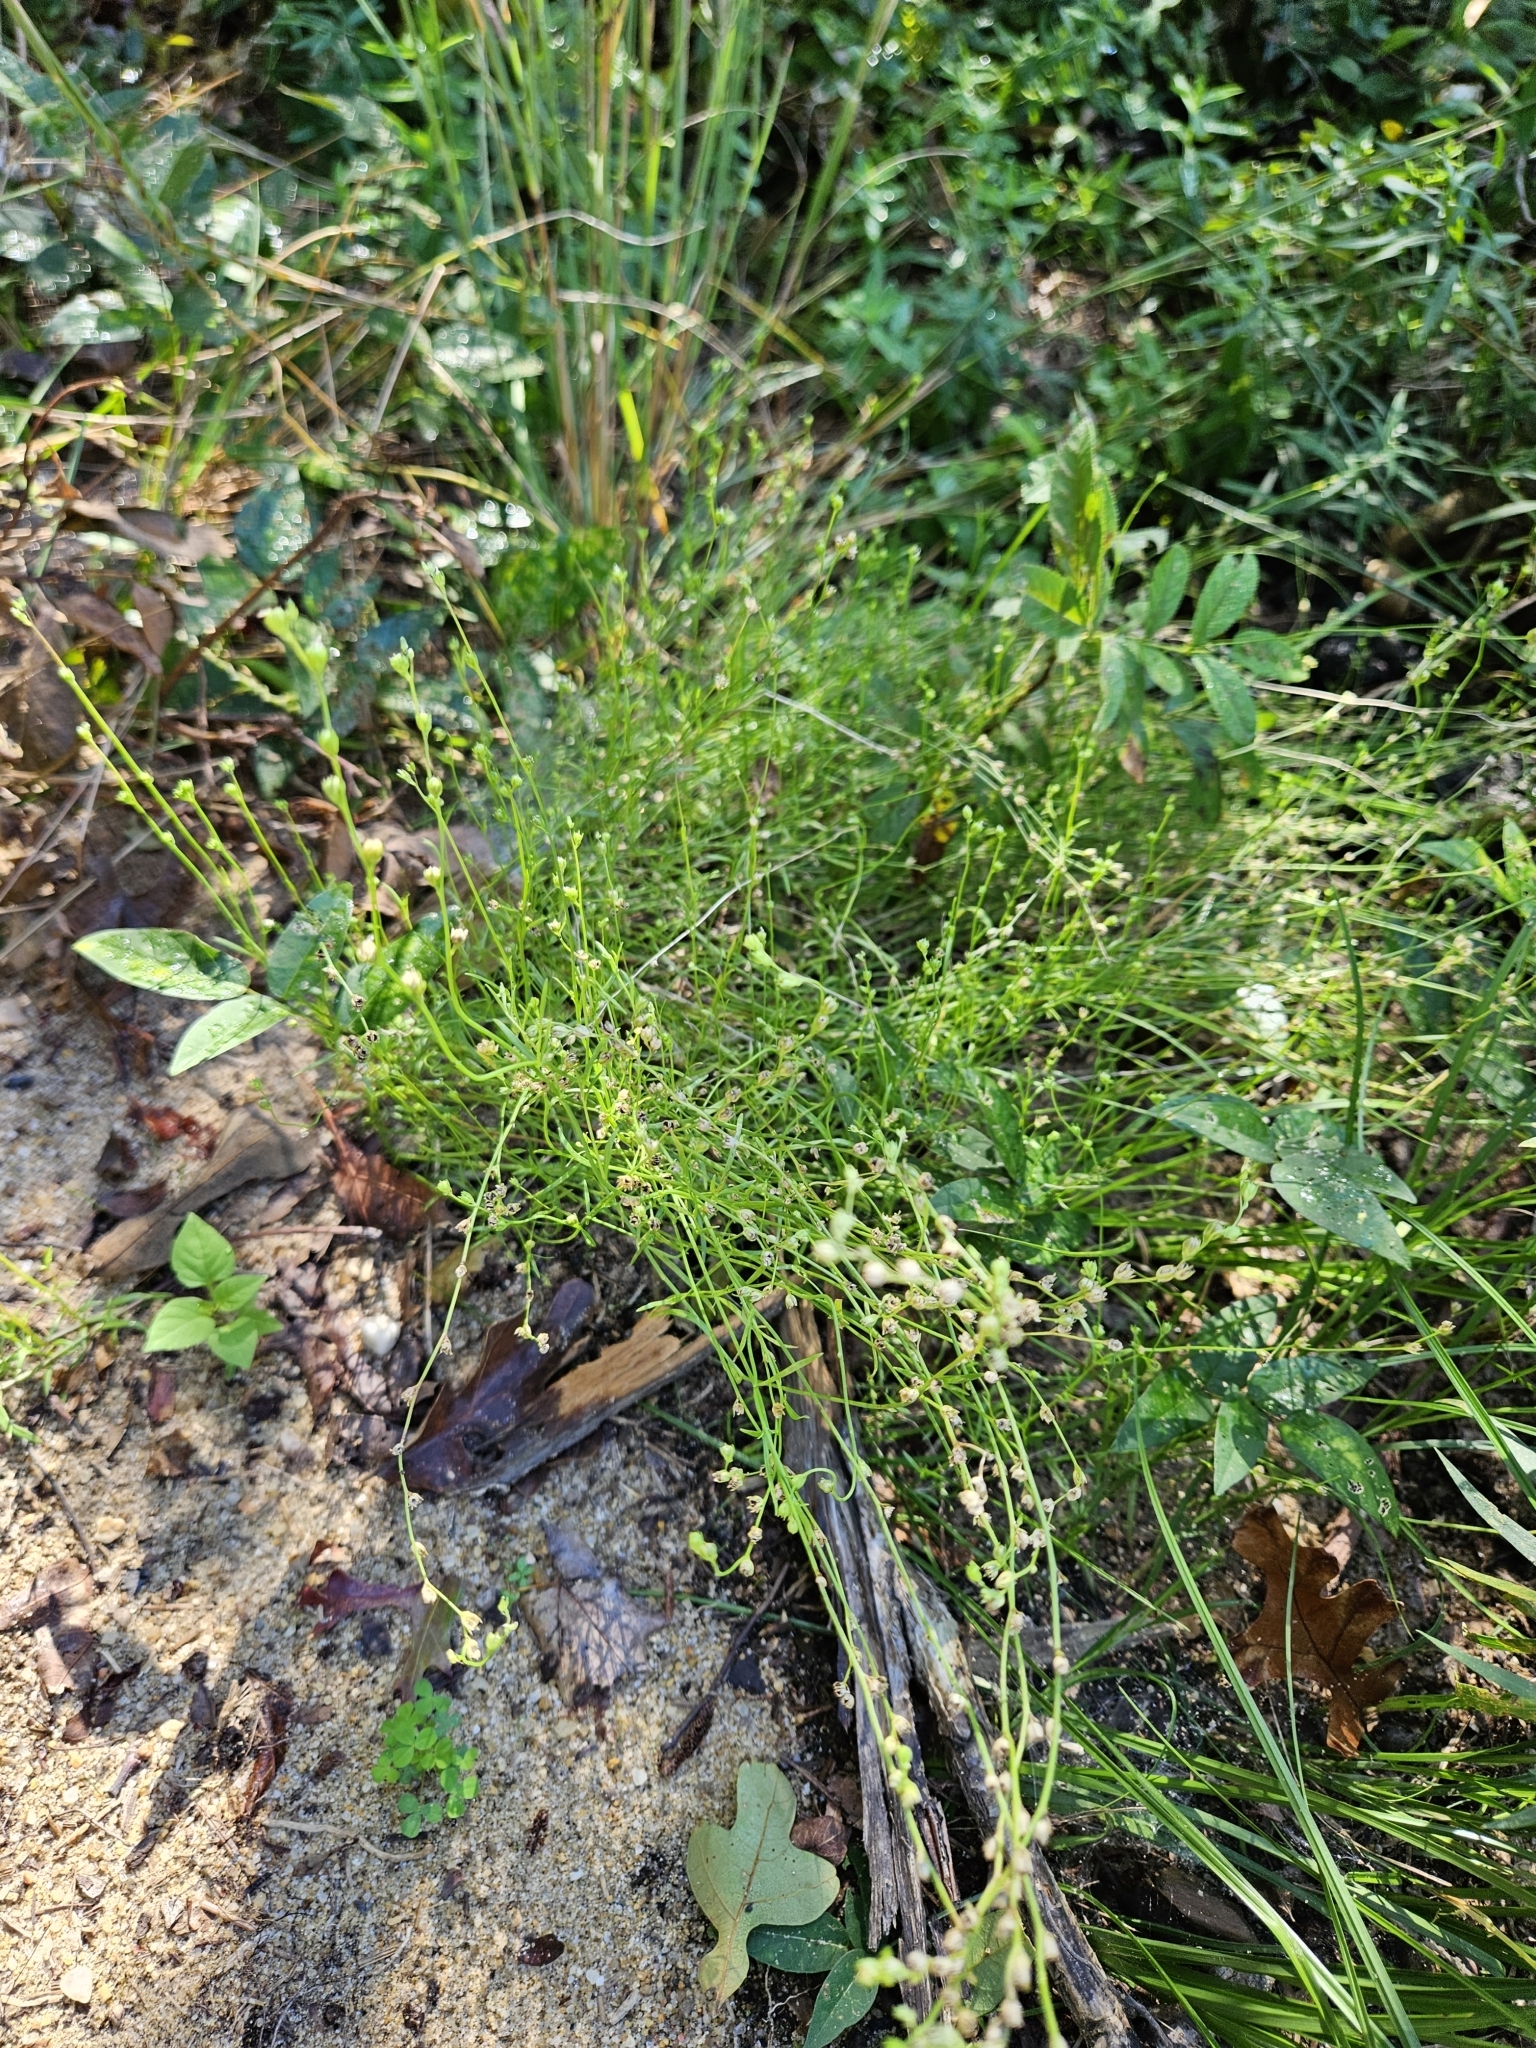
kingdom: Plantae
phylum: Tracheophyta
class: Magnoliopsida
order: Lamiales
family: Plantaginaceae
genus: Nuttallanthus
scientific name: Nuttallanthus canadensis
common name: Blue toadflax
